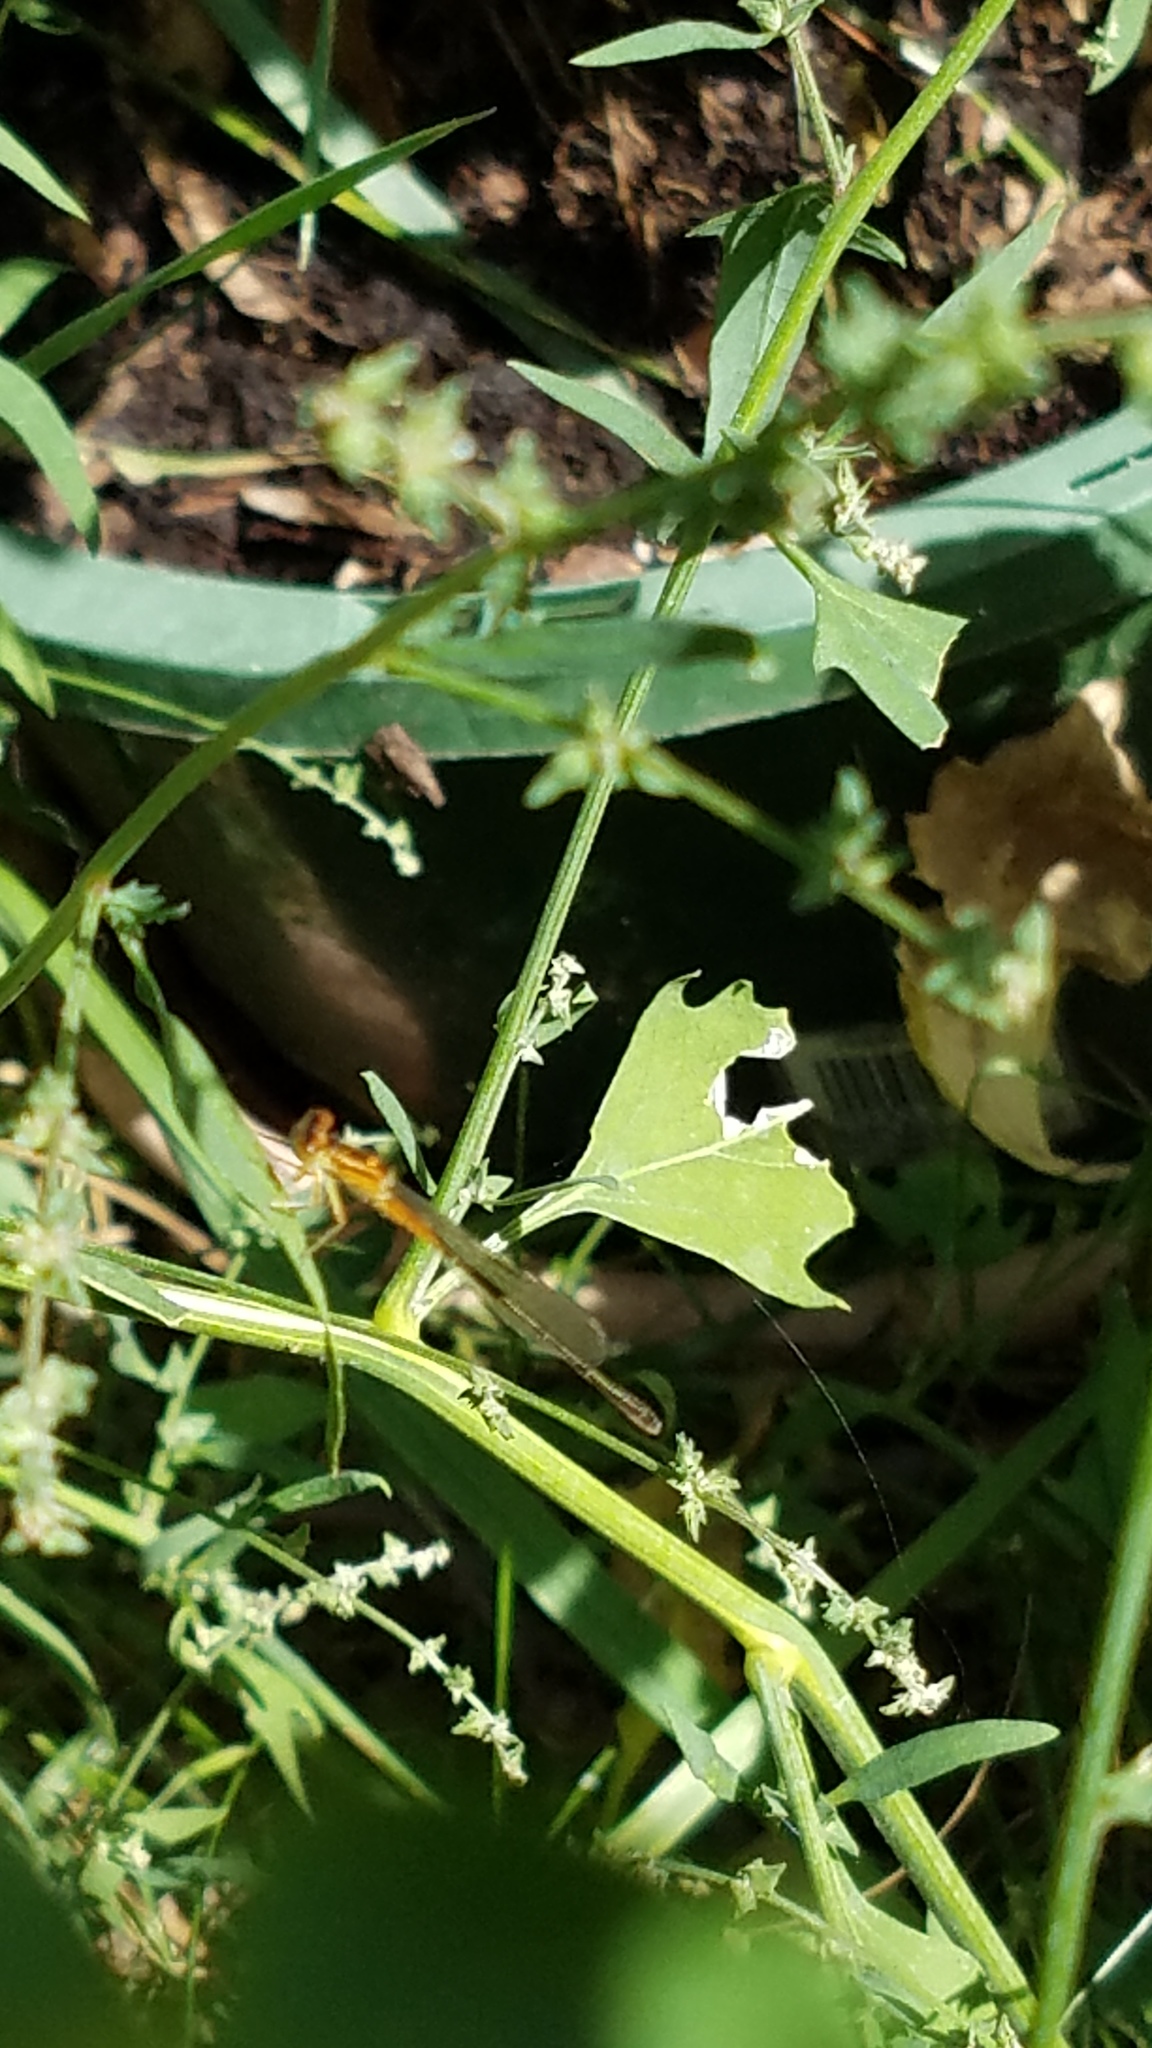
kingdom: Animalia
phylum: Arthropoda
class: Insecta
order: Odonata
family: Coenagrionidae
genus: Ischnura
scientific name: Ischnura verticalis
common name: Eastern forktail
